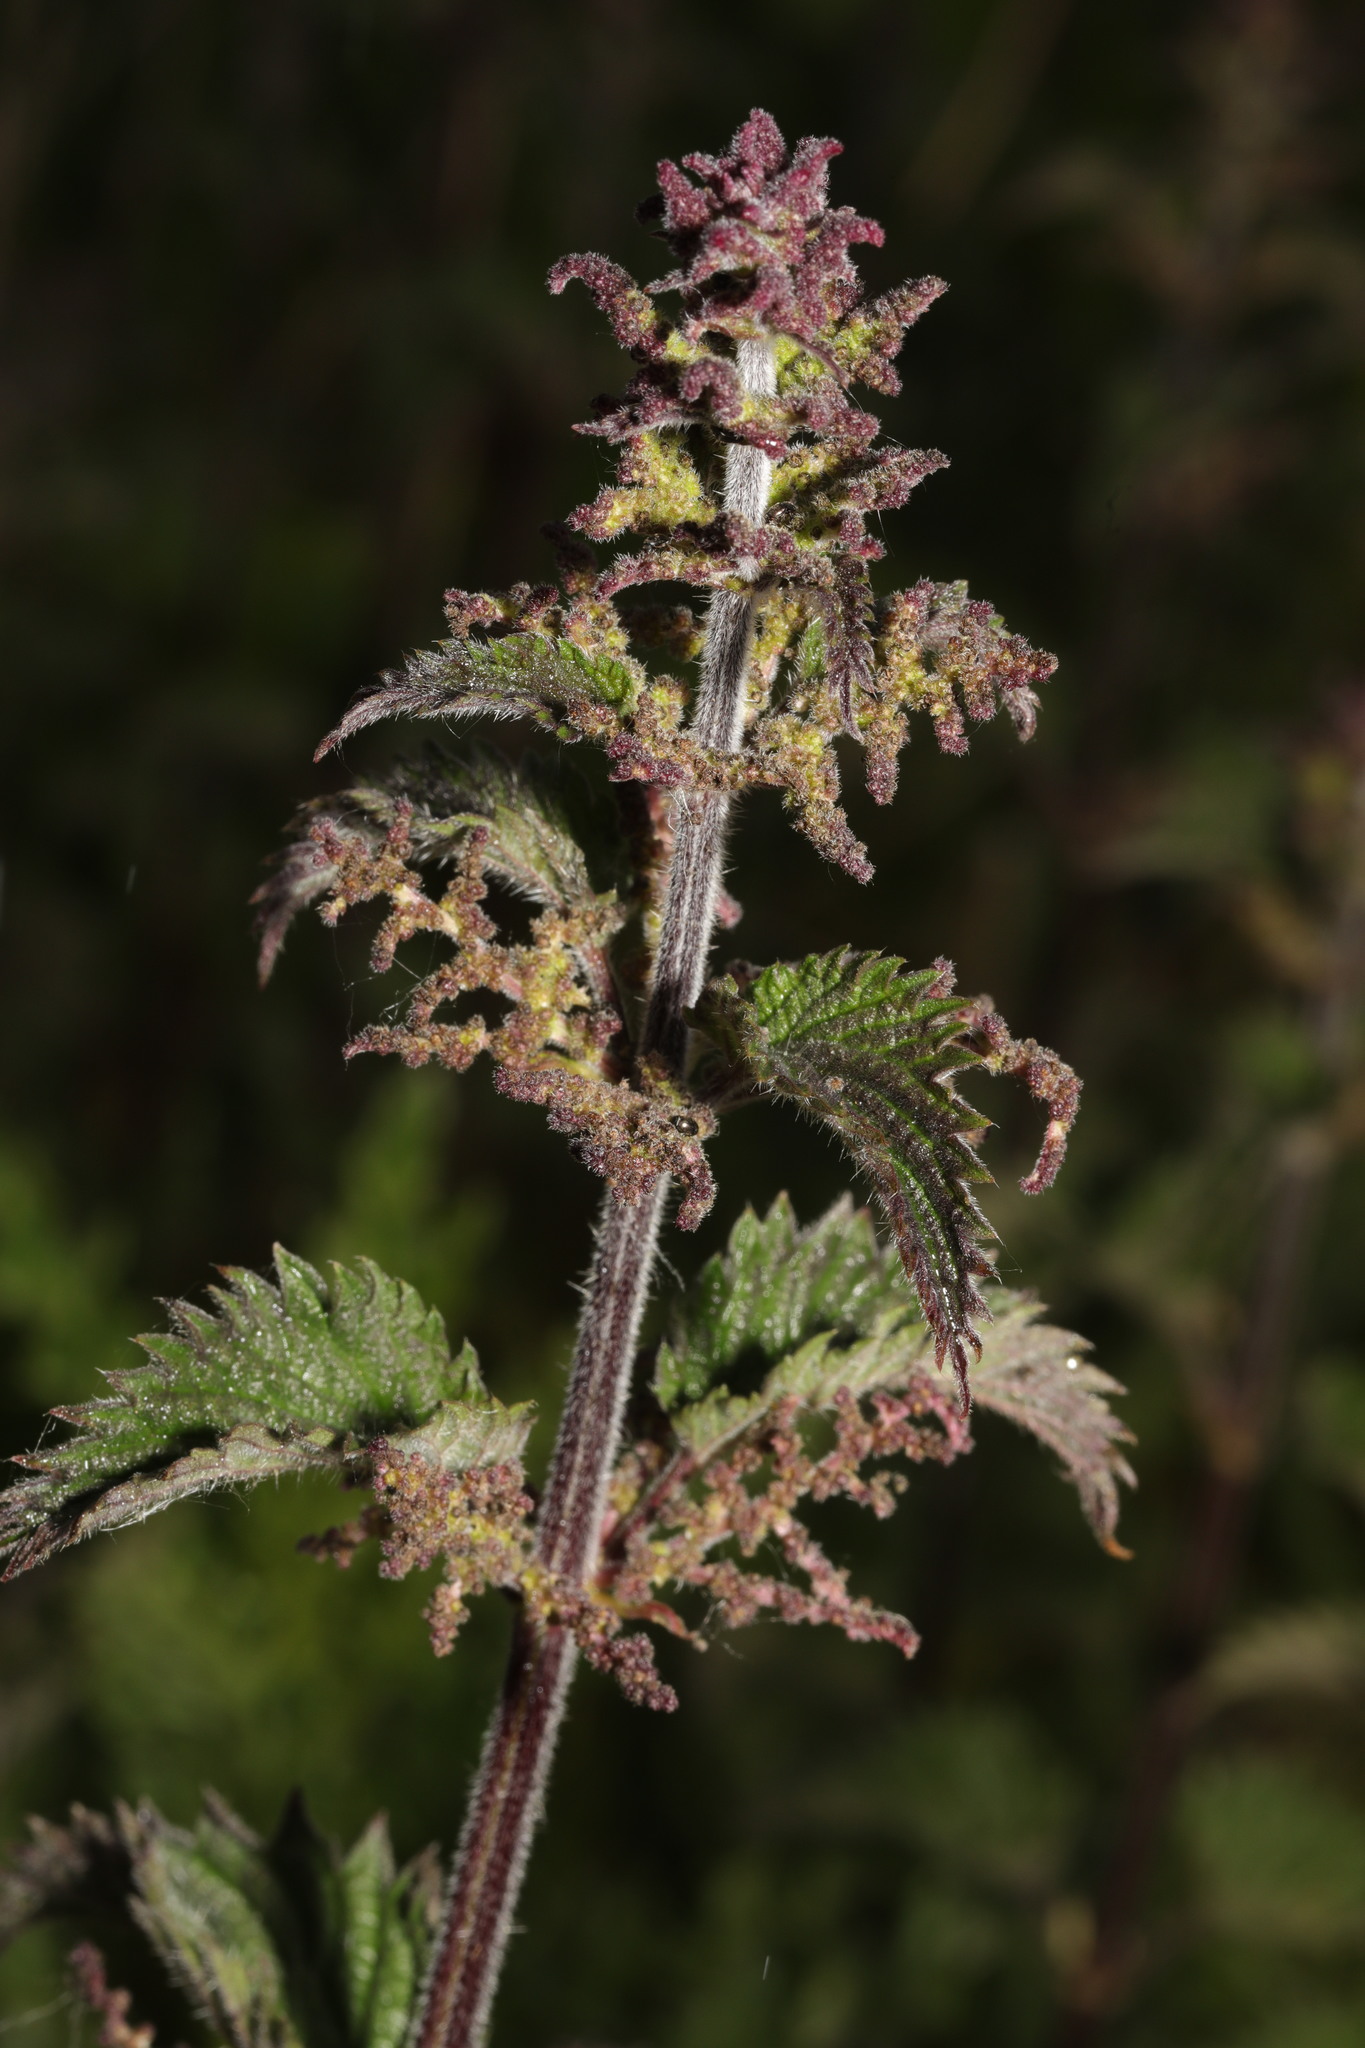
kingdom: Plantae
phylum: Tracheophyta
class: Magnoliopsida
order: Rosales
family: Urticaceae
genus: Urtica
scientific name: Urtica dioica
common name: Common nettle
